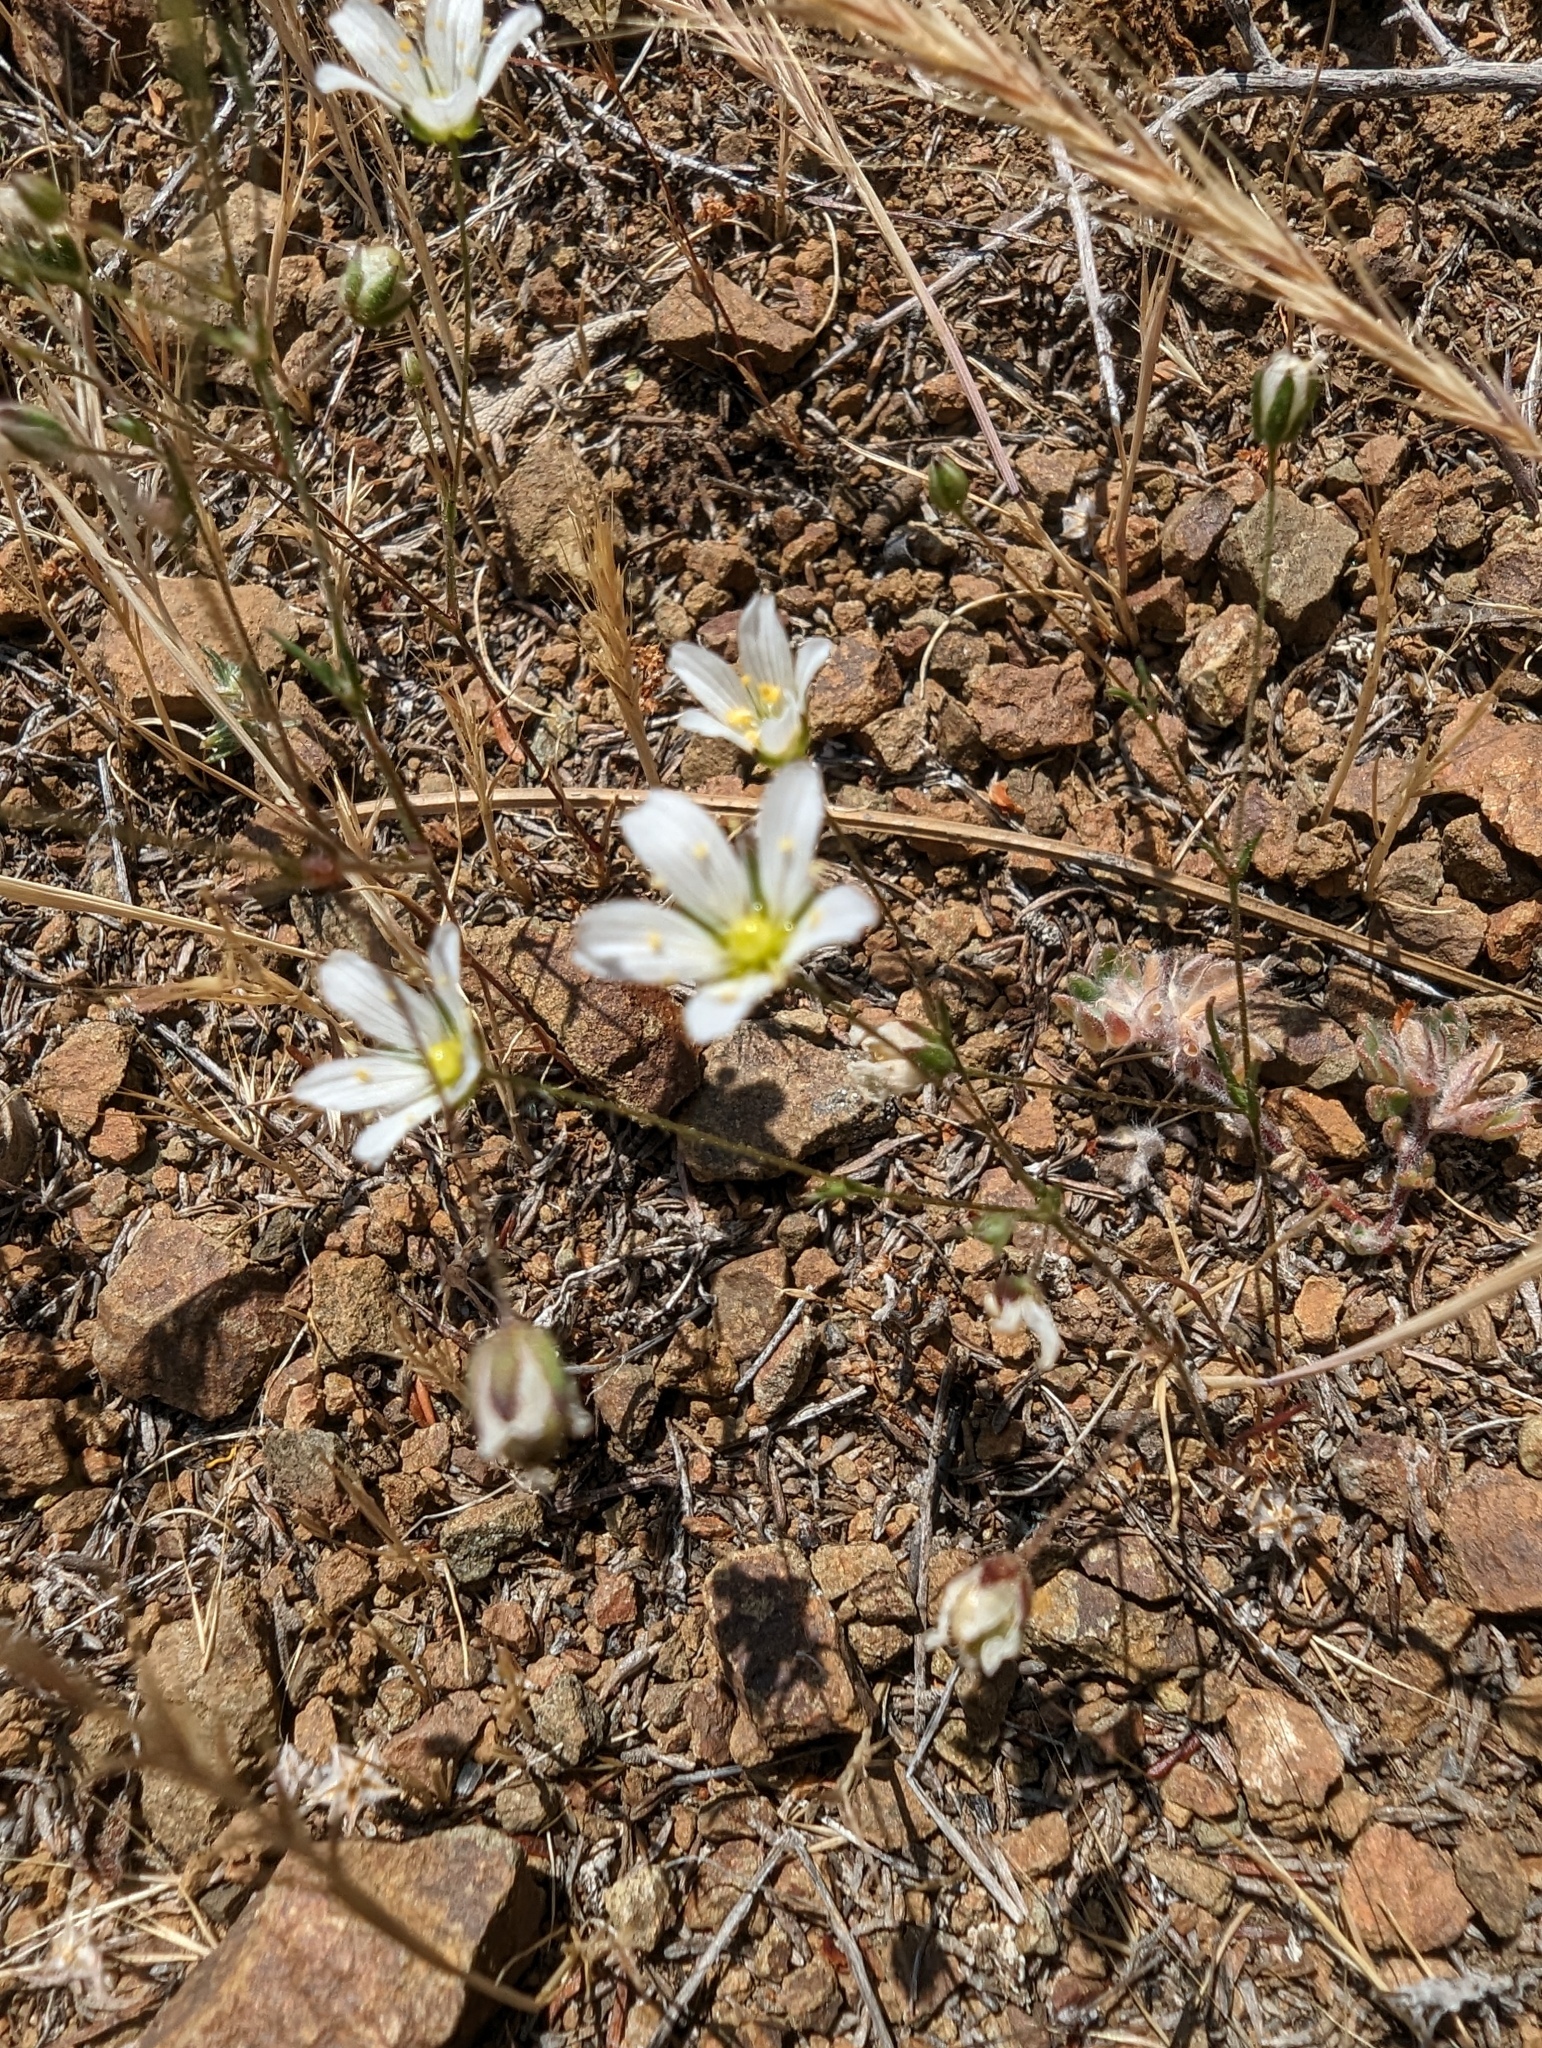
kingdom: Plantae
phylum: Tracheophyta
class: Magnoliopsida
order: Caryophyllales
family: Caryophyllaceae
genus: Sabulina
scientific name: Sabulina douglasii
